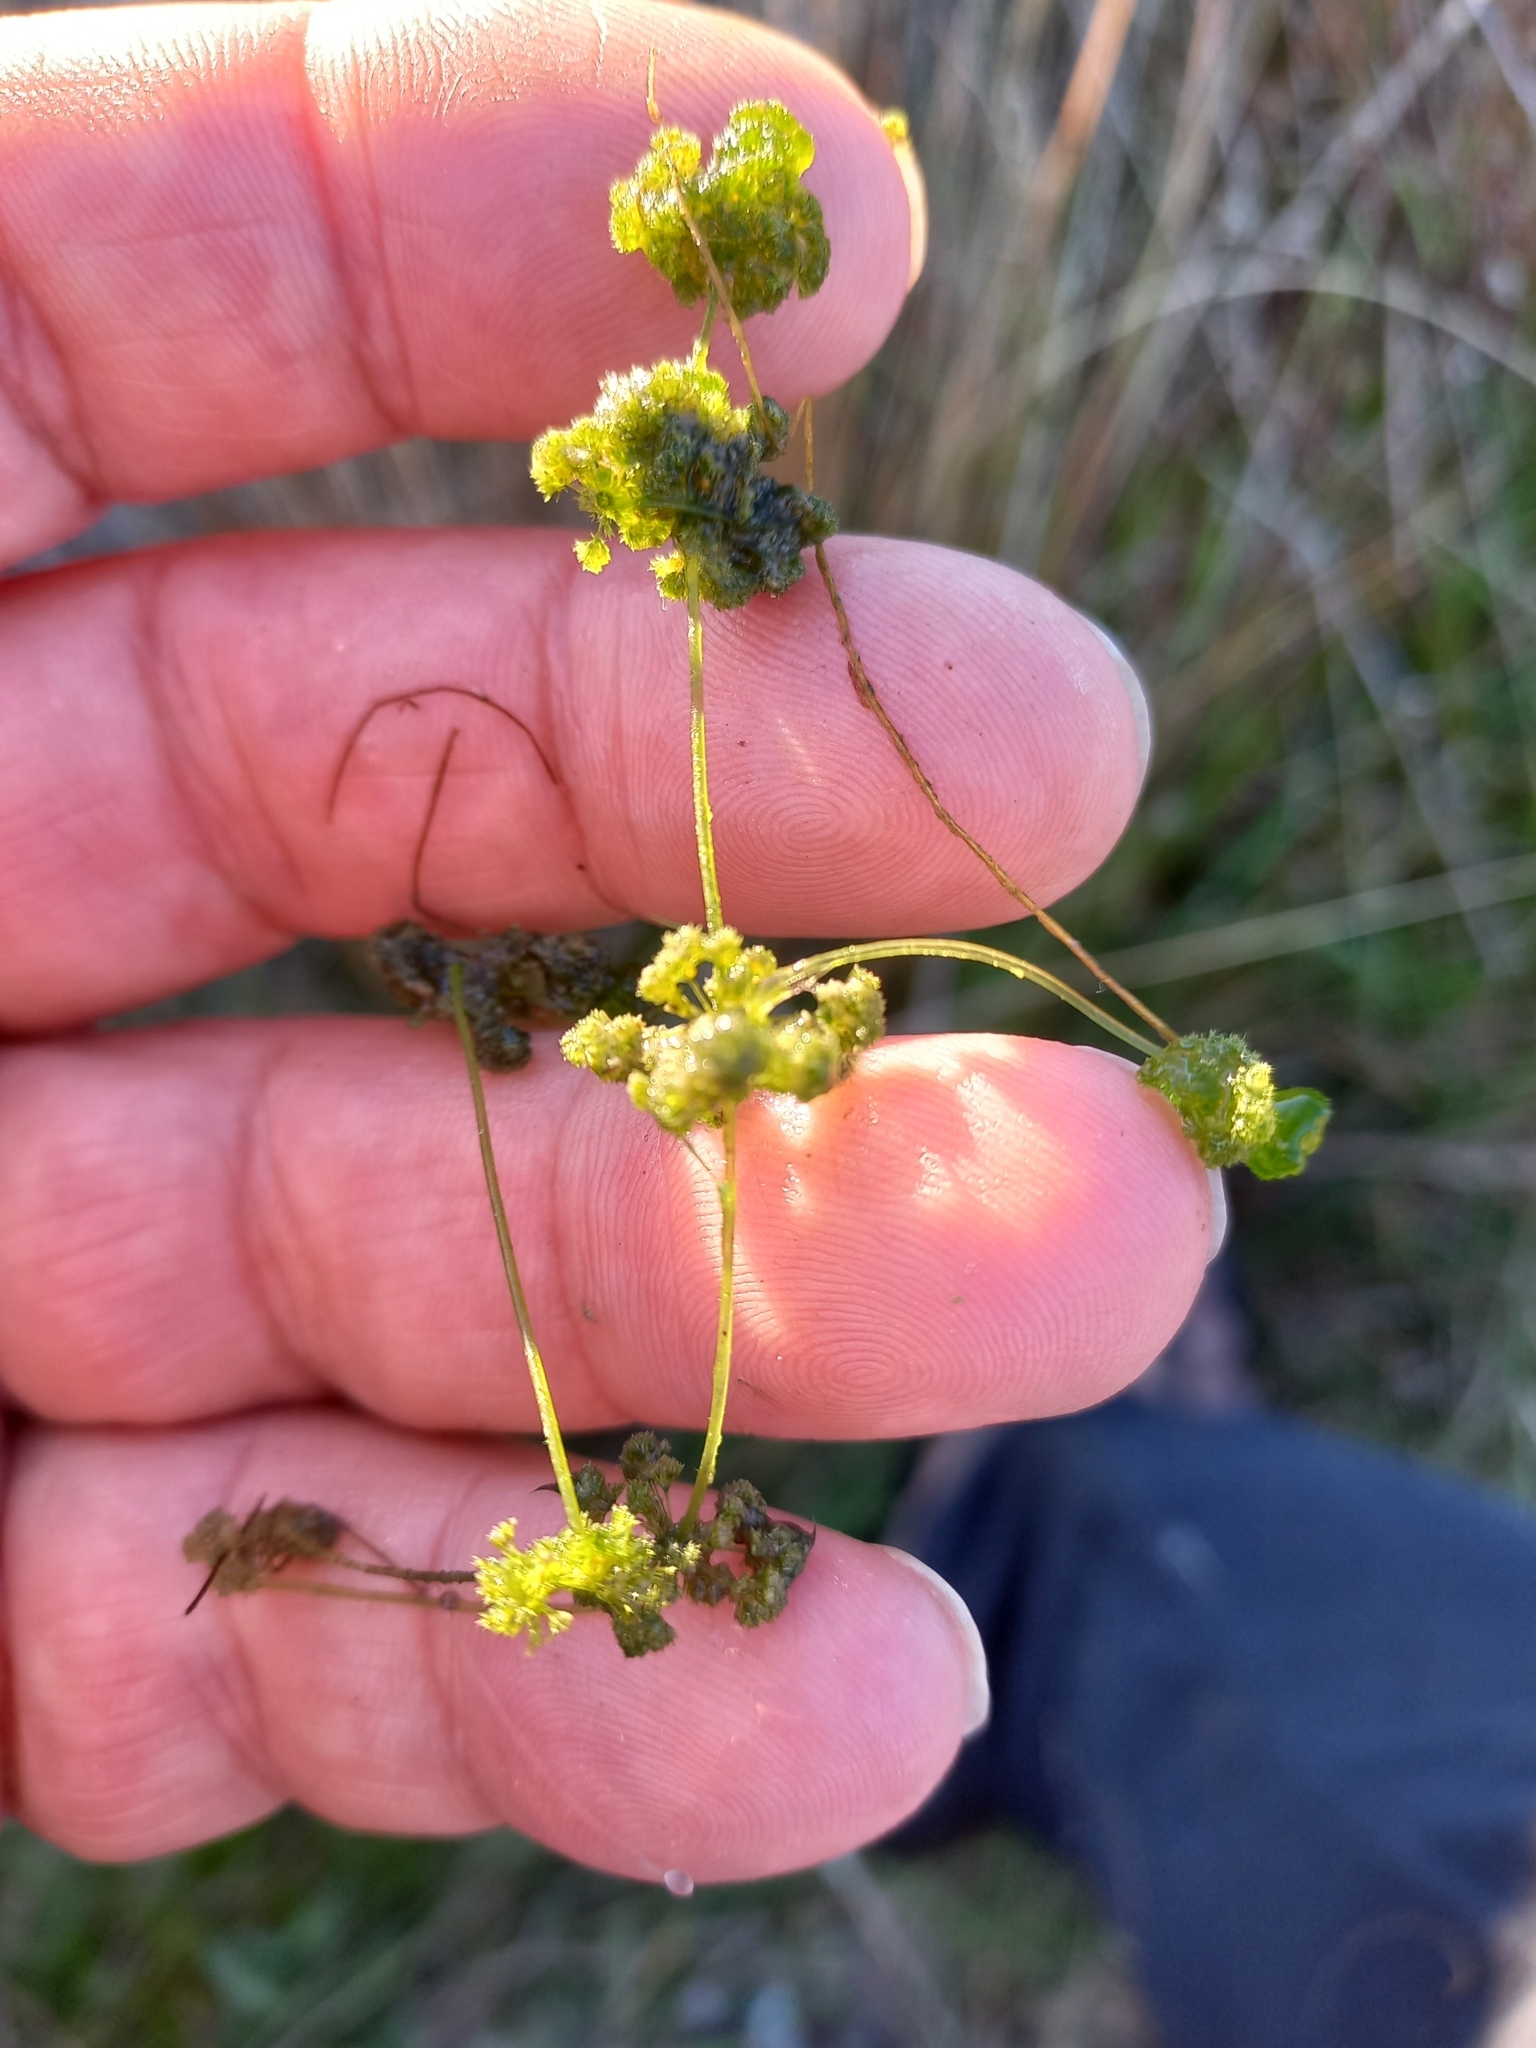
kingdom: Plantae
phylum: Charophyta
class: Charophyceae
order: Charales
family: Characeae
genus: Nitella
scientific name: Nitella hyalina
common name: Many-branched stonewort
